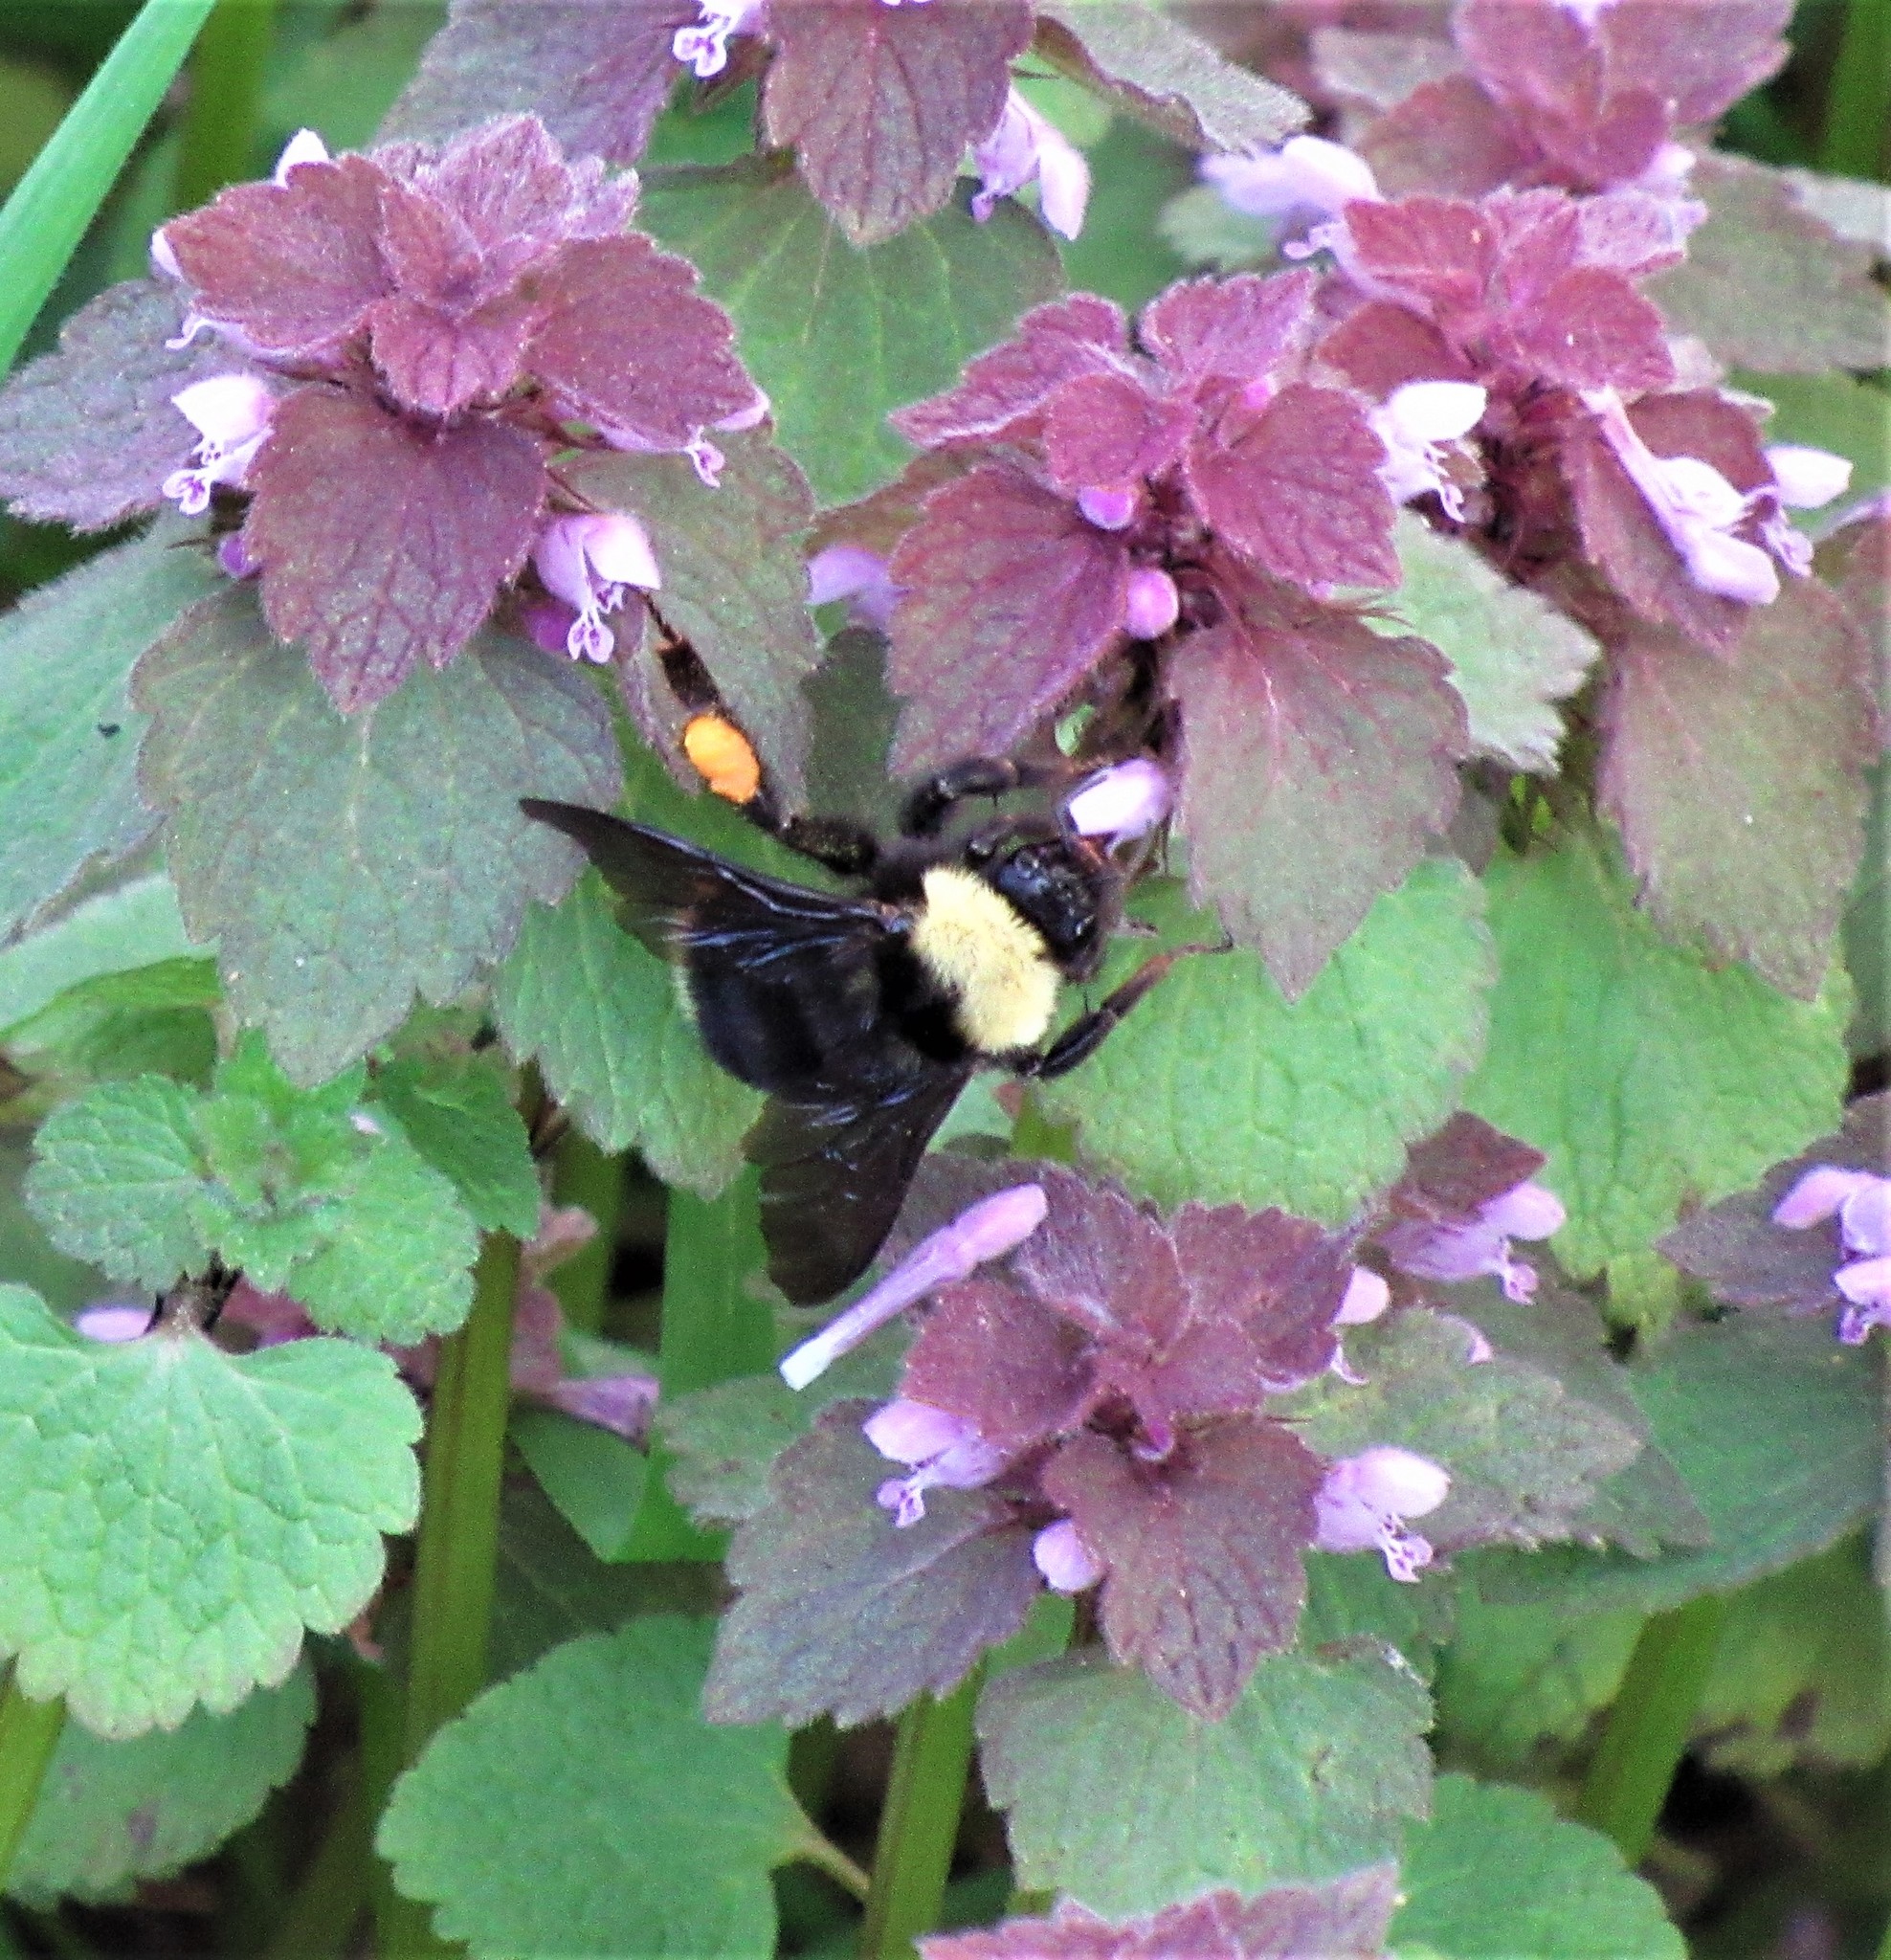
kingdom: Animalia
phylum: Arthropoda
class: Insecta
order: Hymenoptera
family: Apidae
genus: Bombus
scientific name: Bombus californicus
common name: California bumble bee
